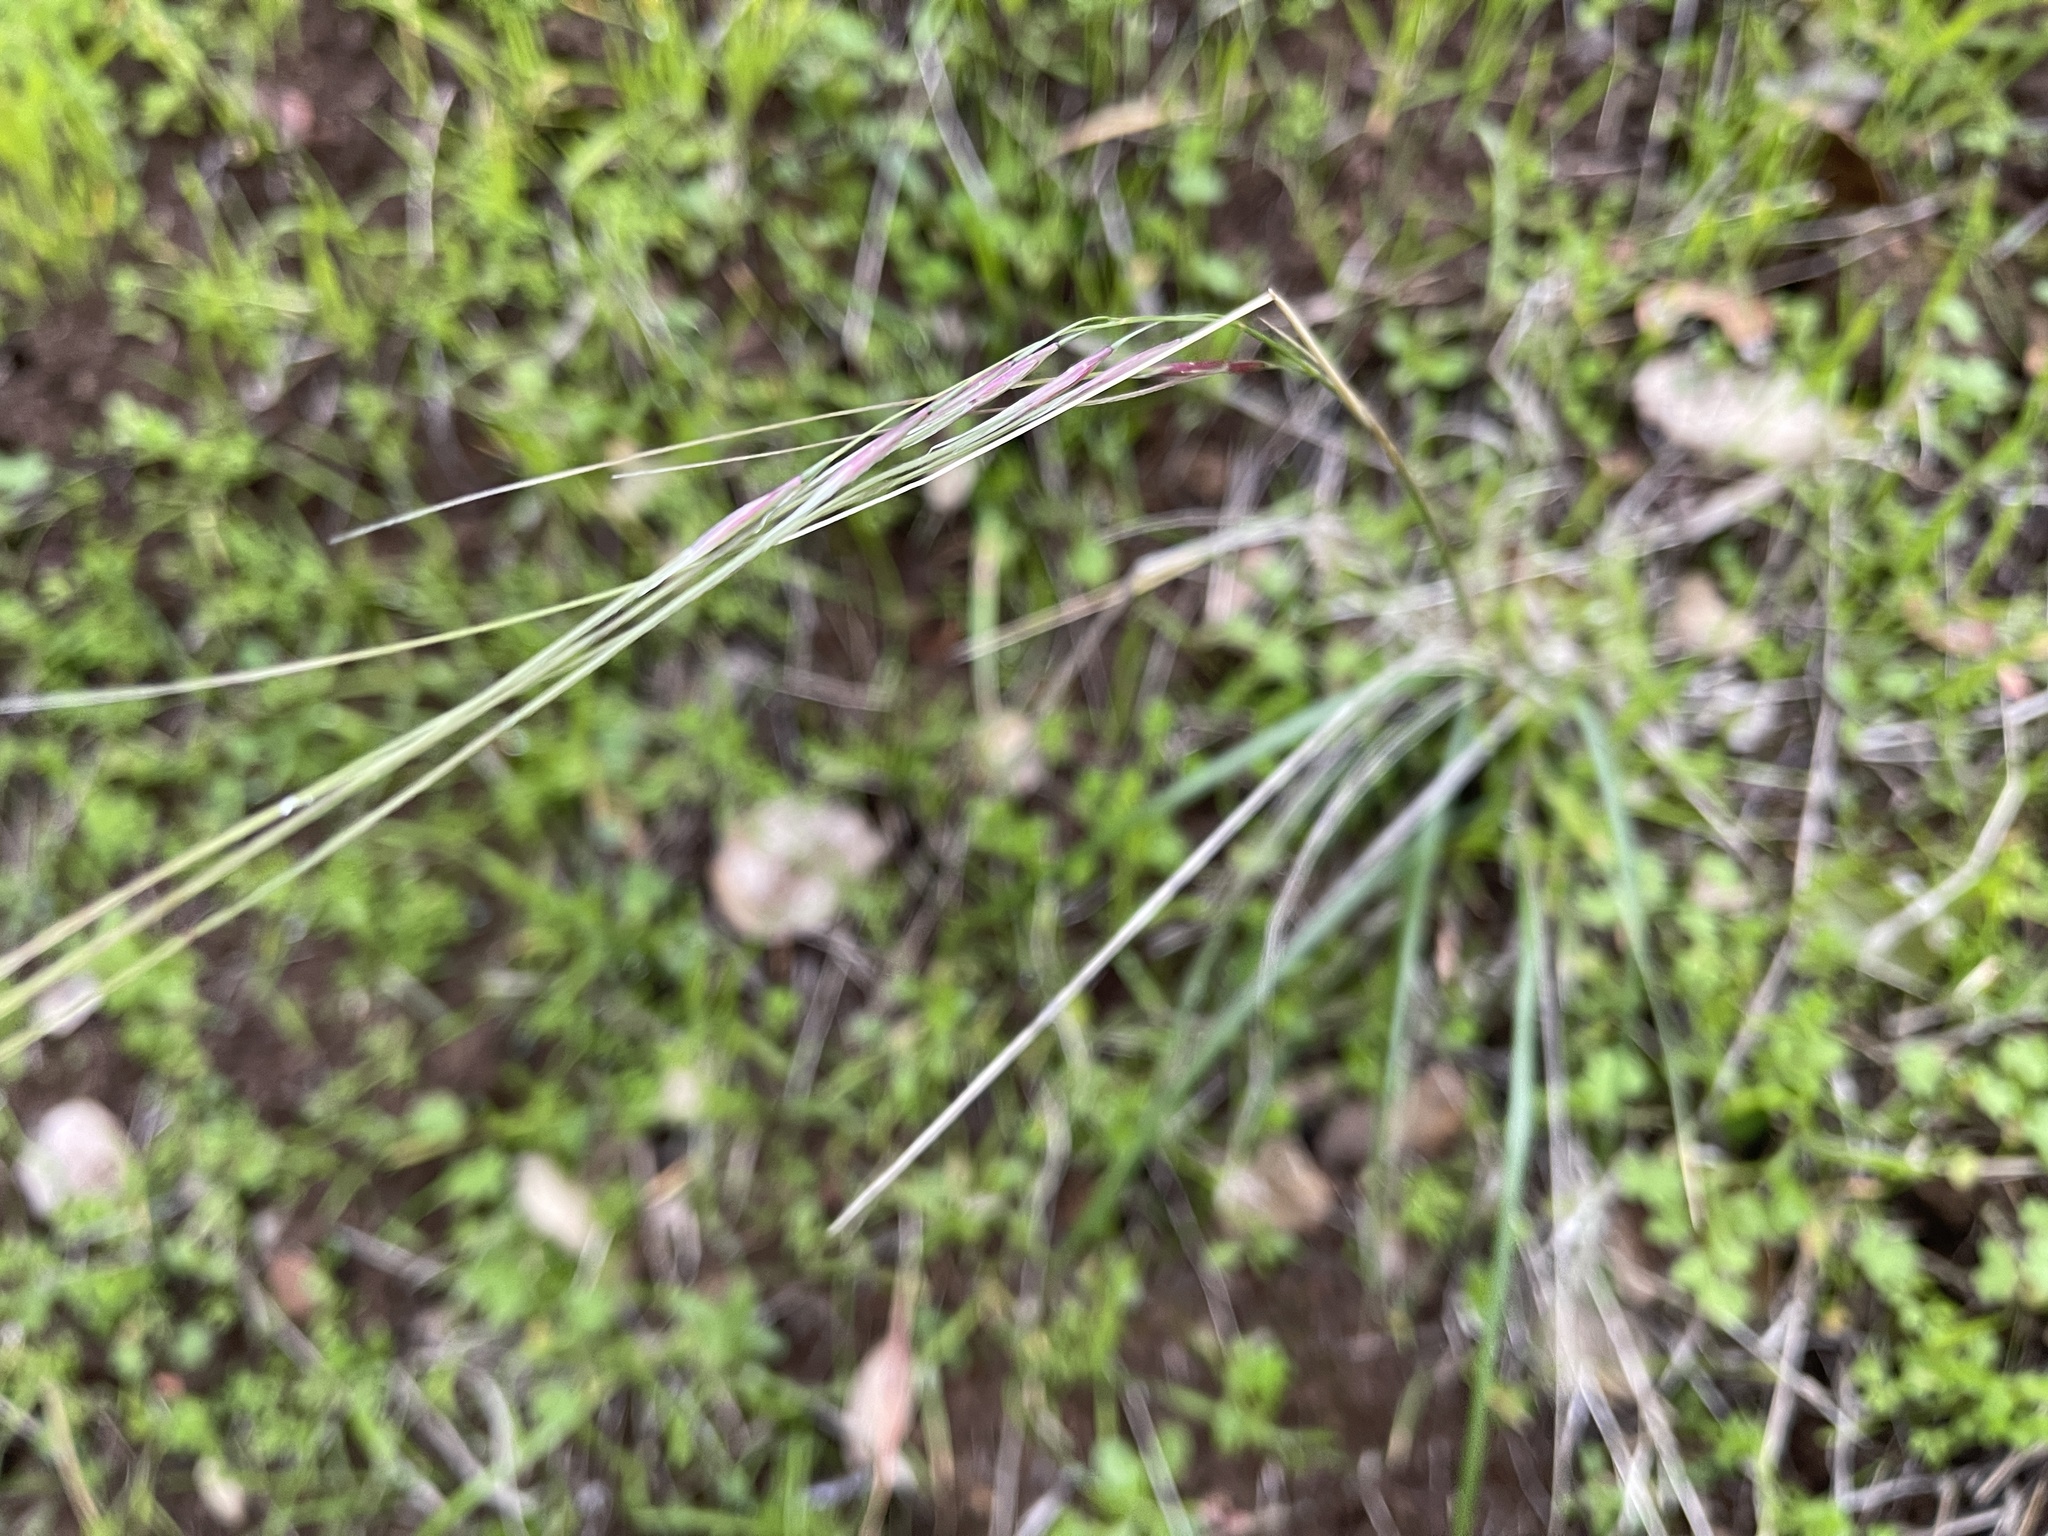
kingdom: Plantae
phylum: Tracheophyta
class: Liliopsida
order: Poales
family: Poaceae
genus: Nassella
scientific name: Nassella pulchra
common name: Purple needlegrass
